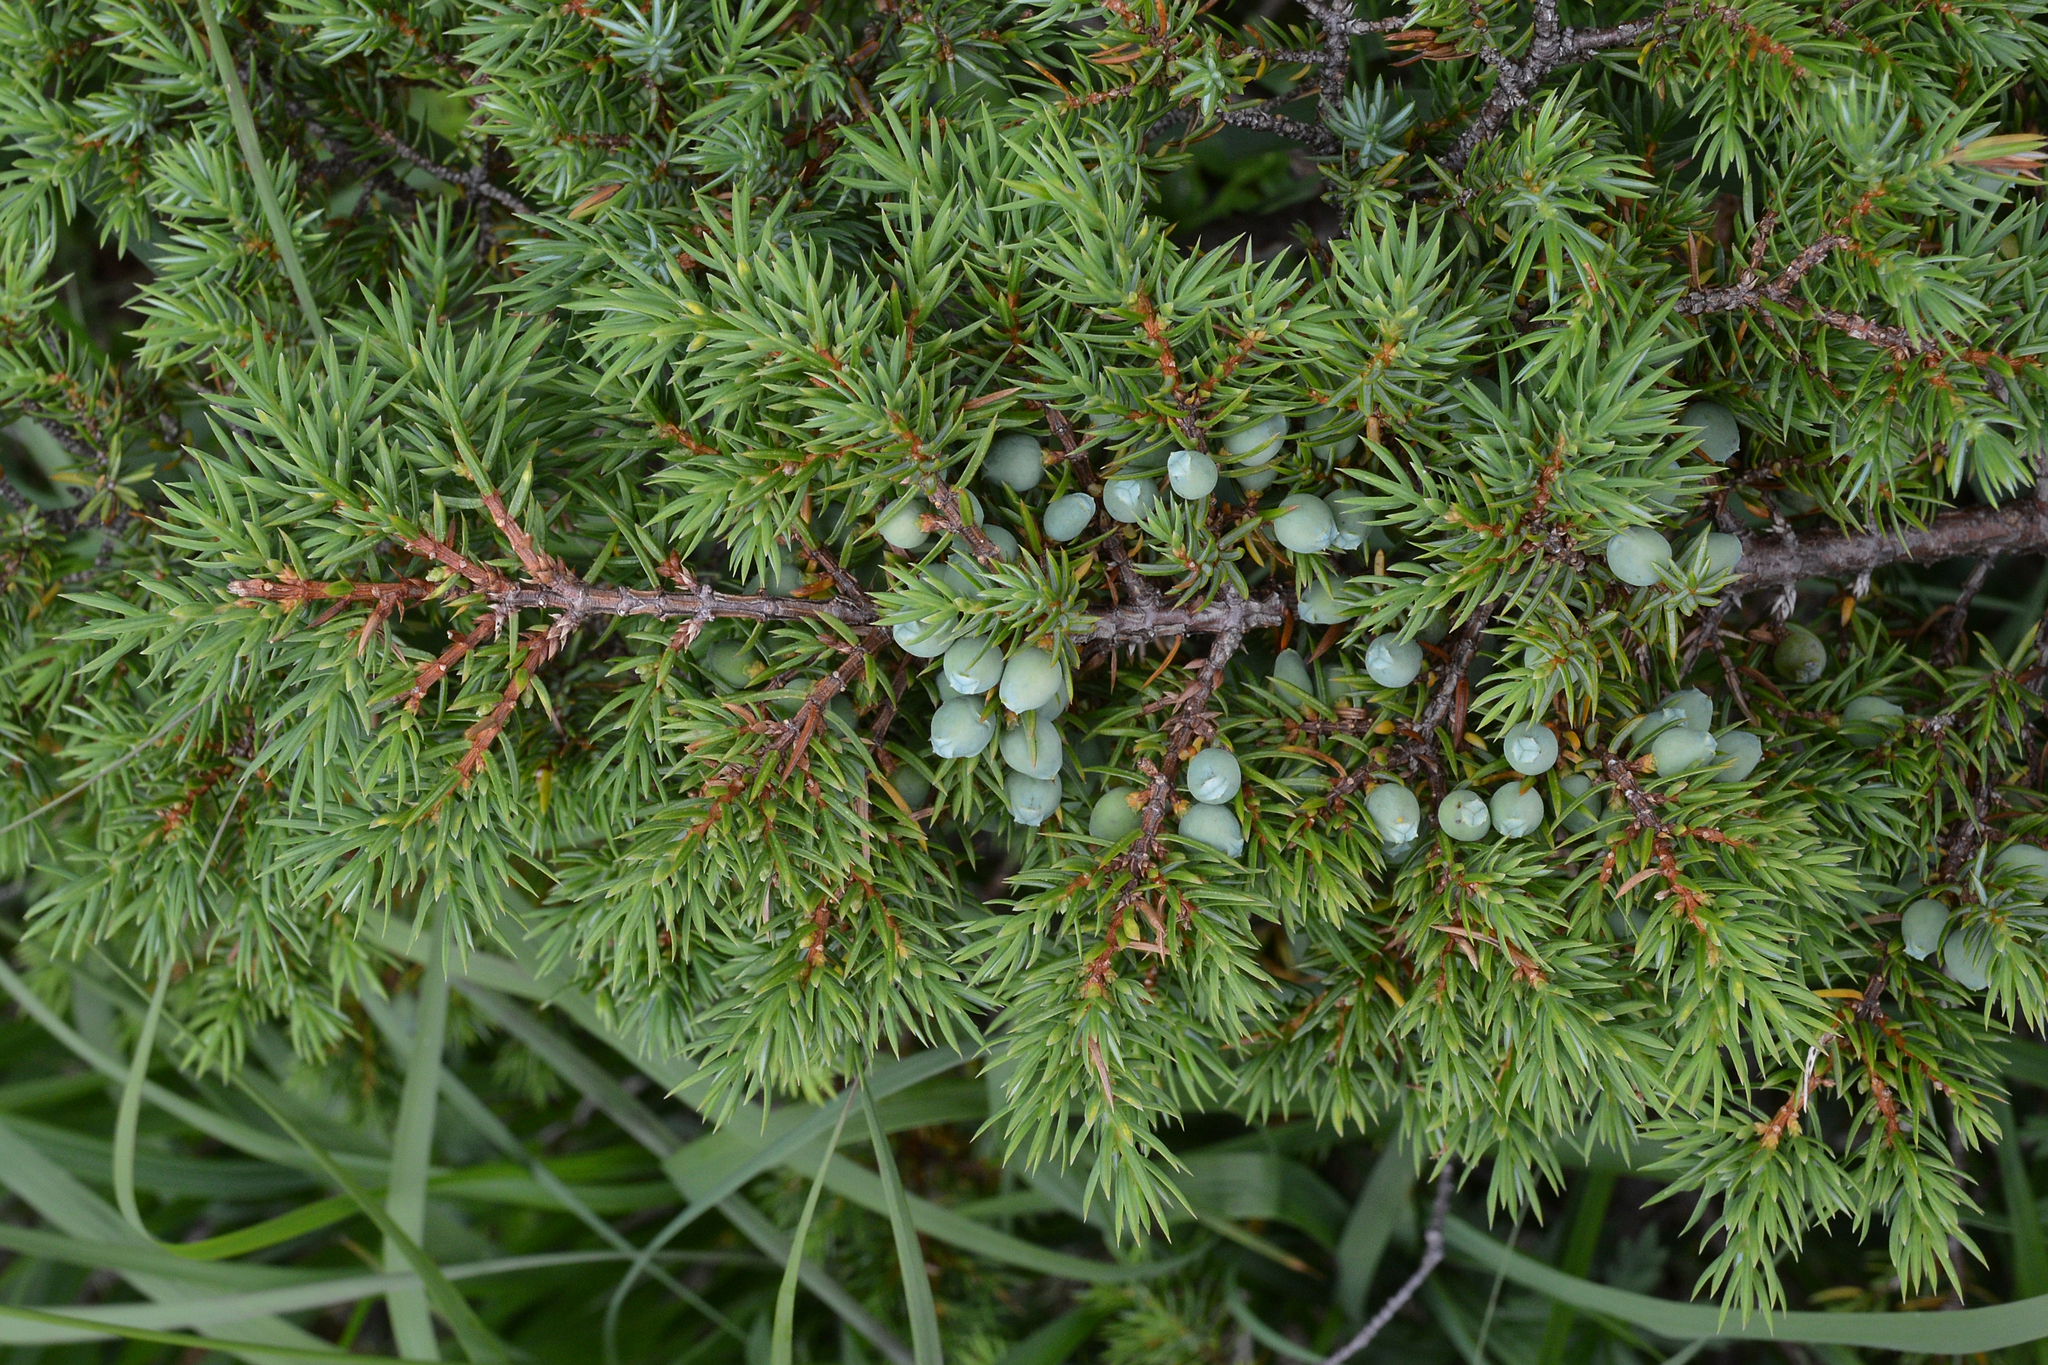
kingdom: Plantae
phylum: Tracheophyta
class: Pinopsida
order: Pinales
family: Cupressaceae
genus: Juniperus
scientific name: Juniperus communis
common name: Common juniper
